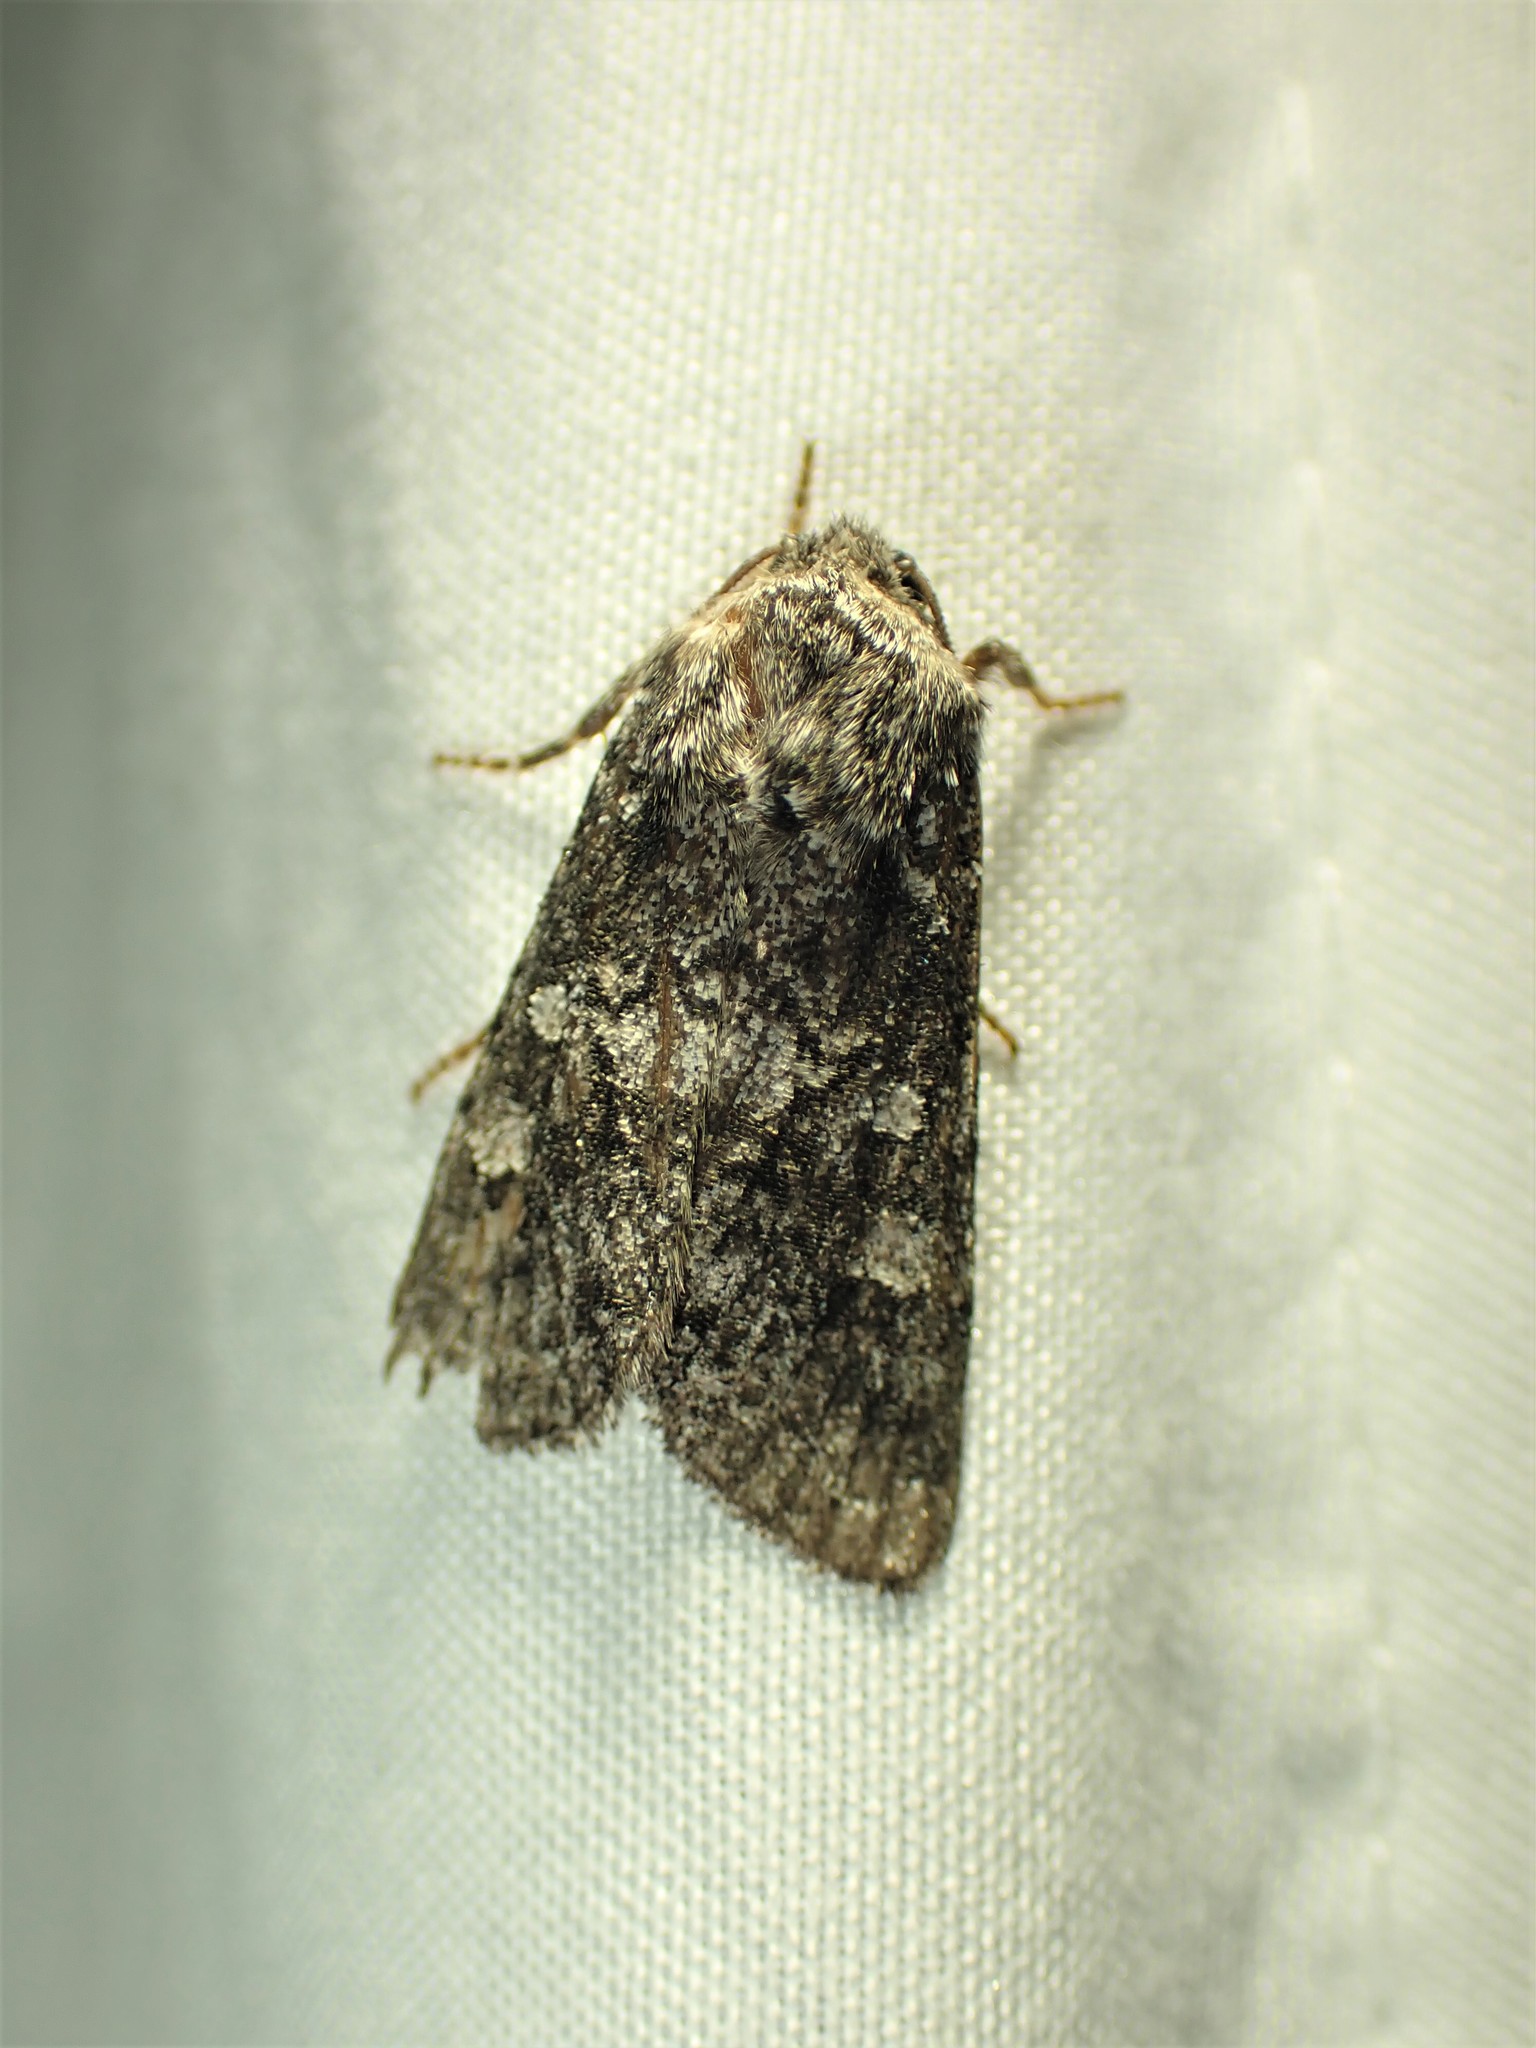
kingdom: Animalia
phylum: Arthropoda
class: Insecta
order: Lepidoptera
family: Noctuidae
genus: Egira
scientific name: Egira dolosa
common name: Lined black aspen cat.
